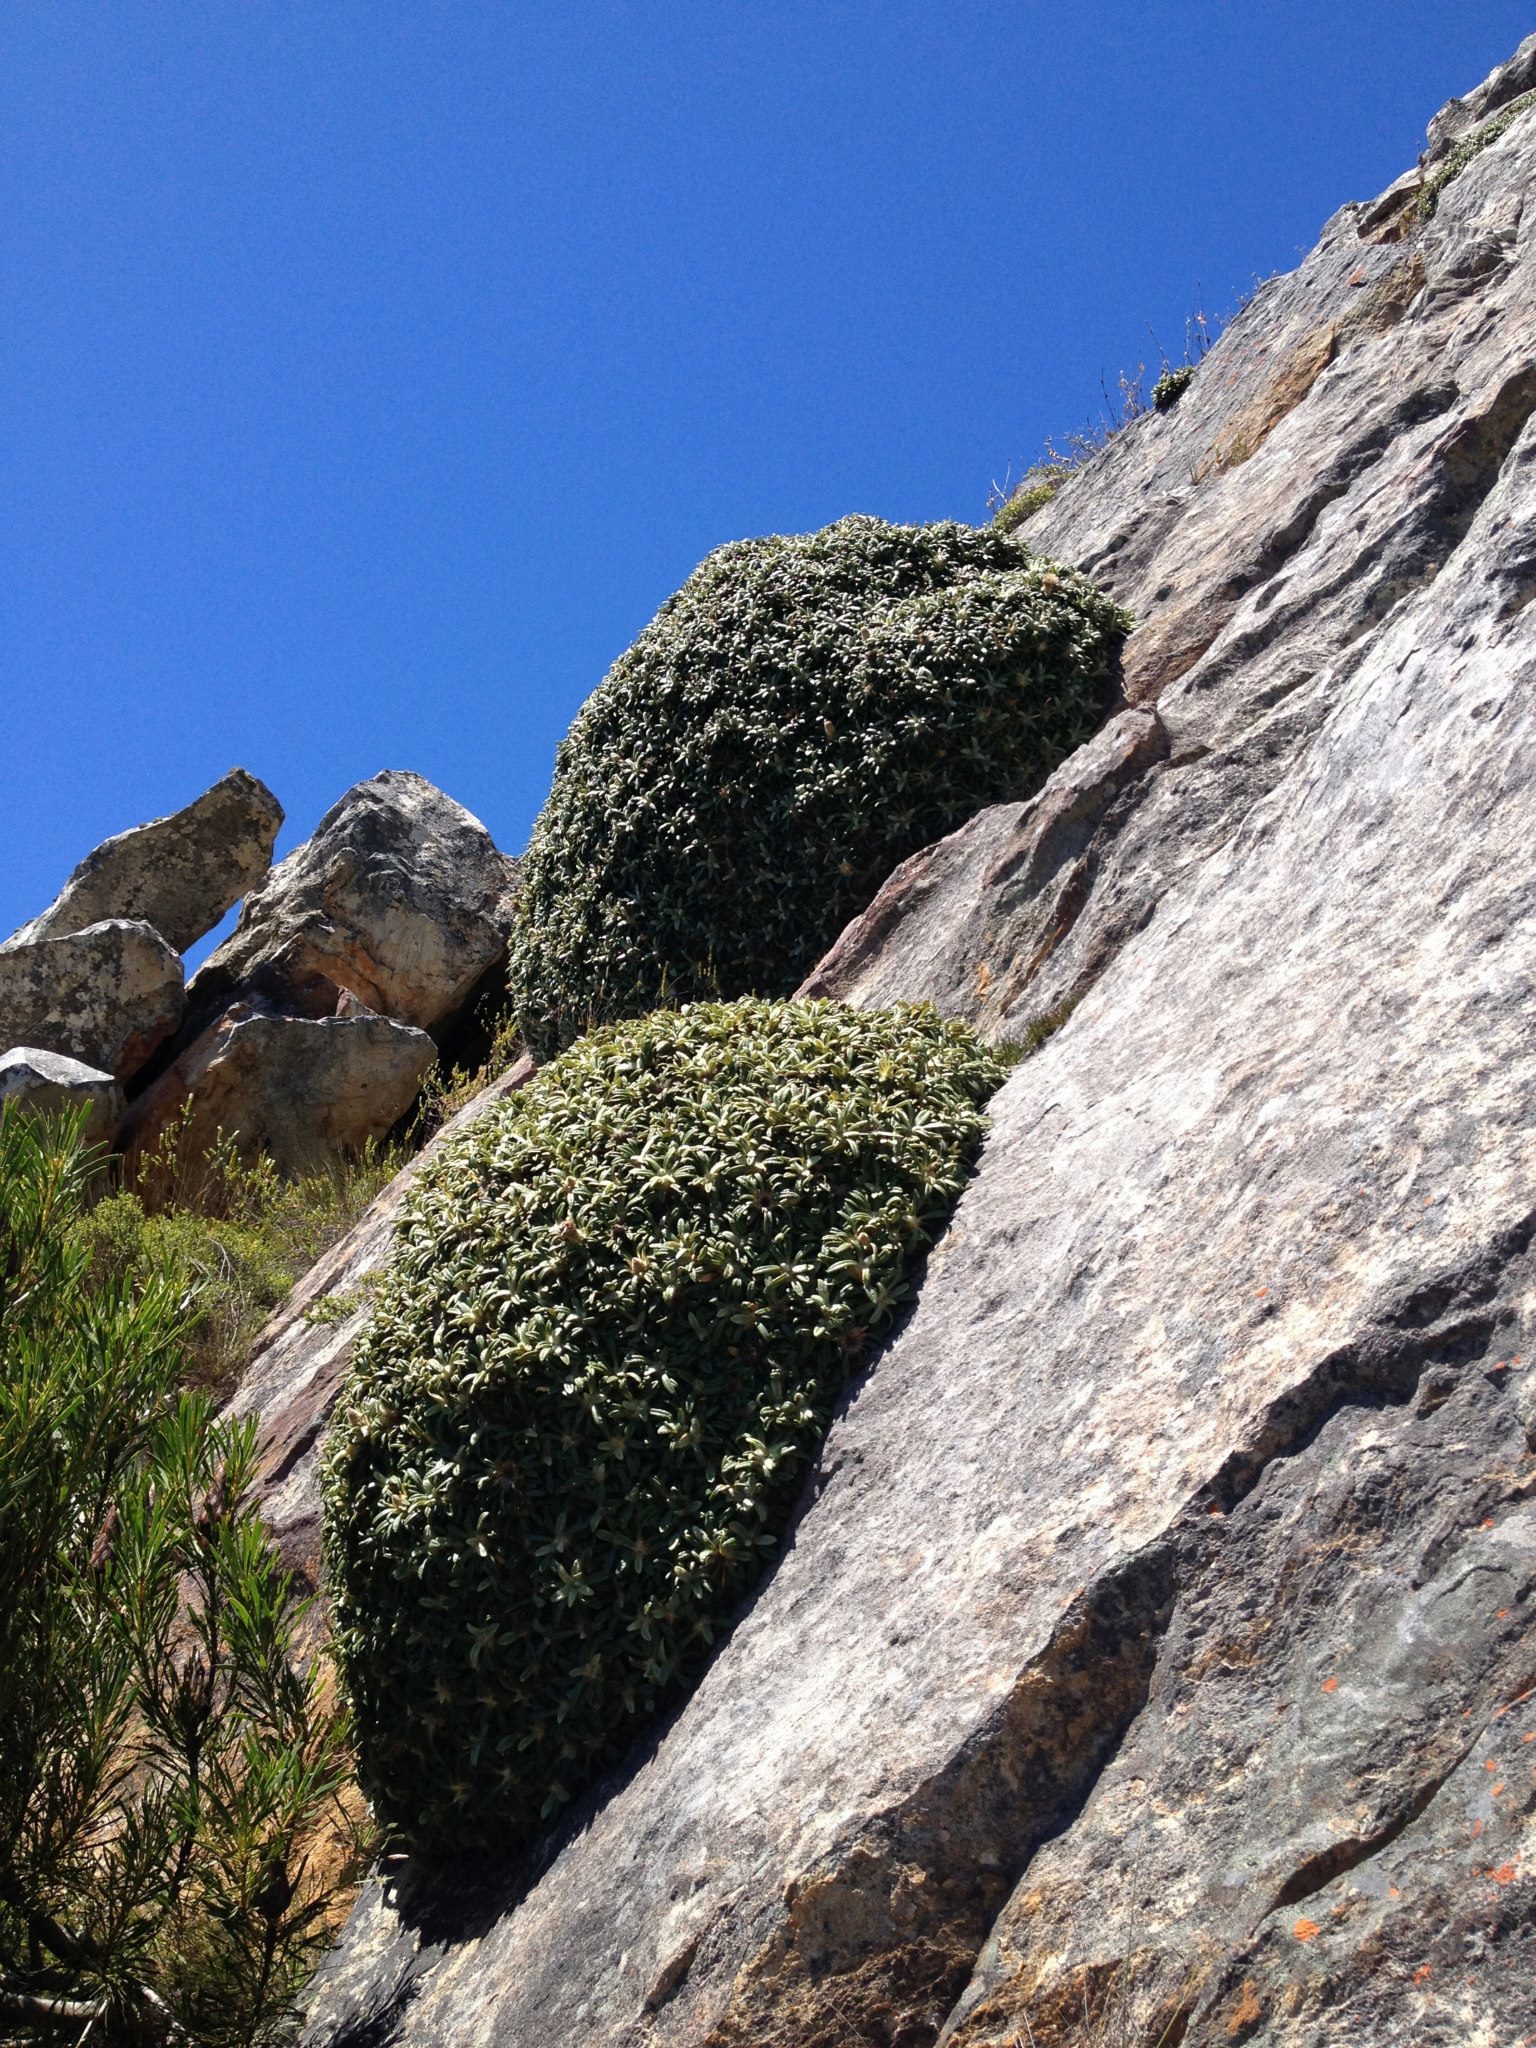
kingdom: Plantae
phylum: Tracheophyta
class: Magnoliopsida
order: Asterales
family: Asteraceae
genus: Oldenburgia
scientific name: Oldenburgia paradoxa
